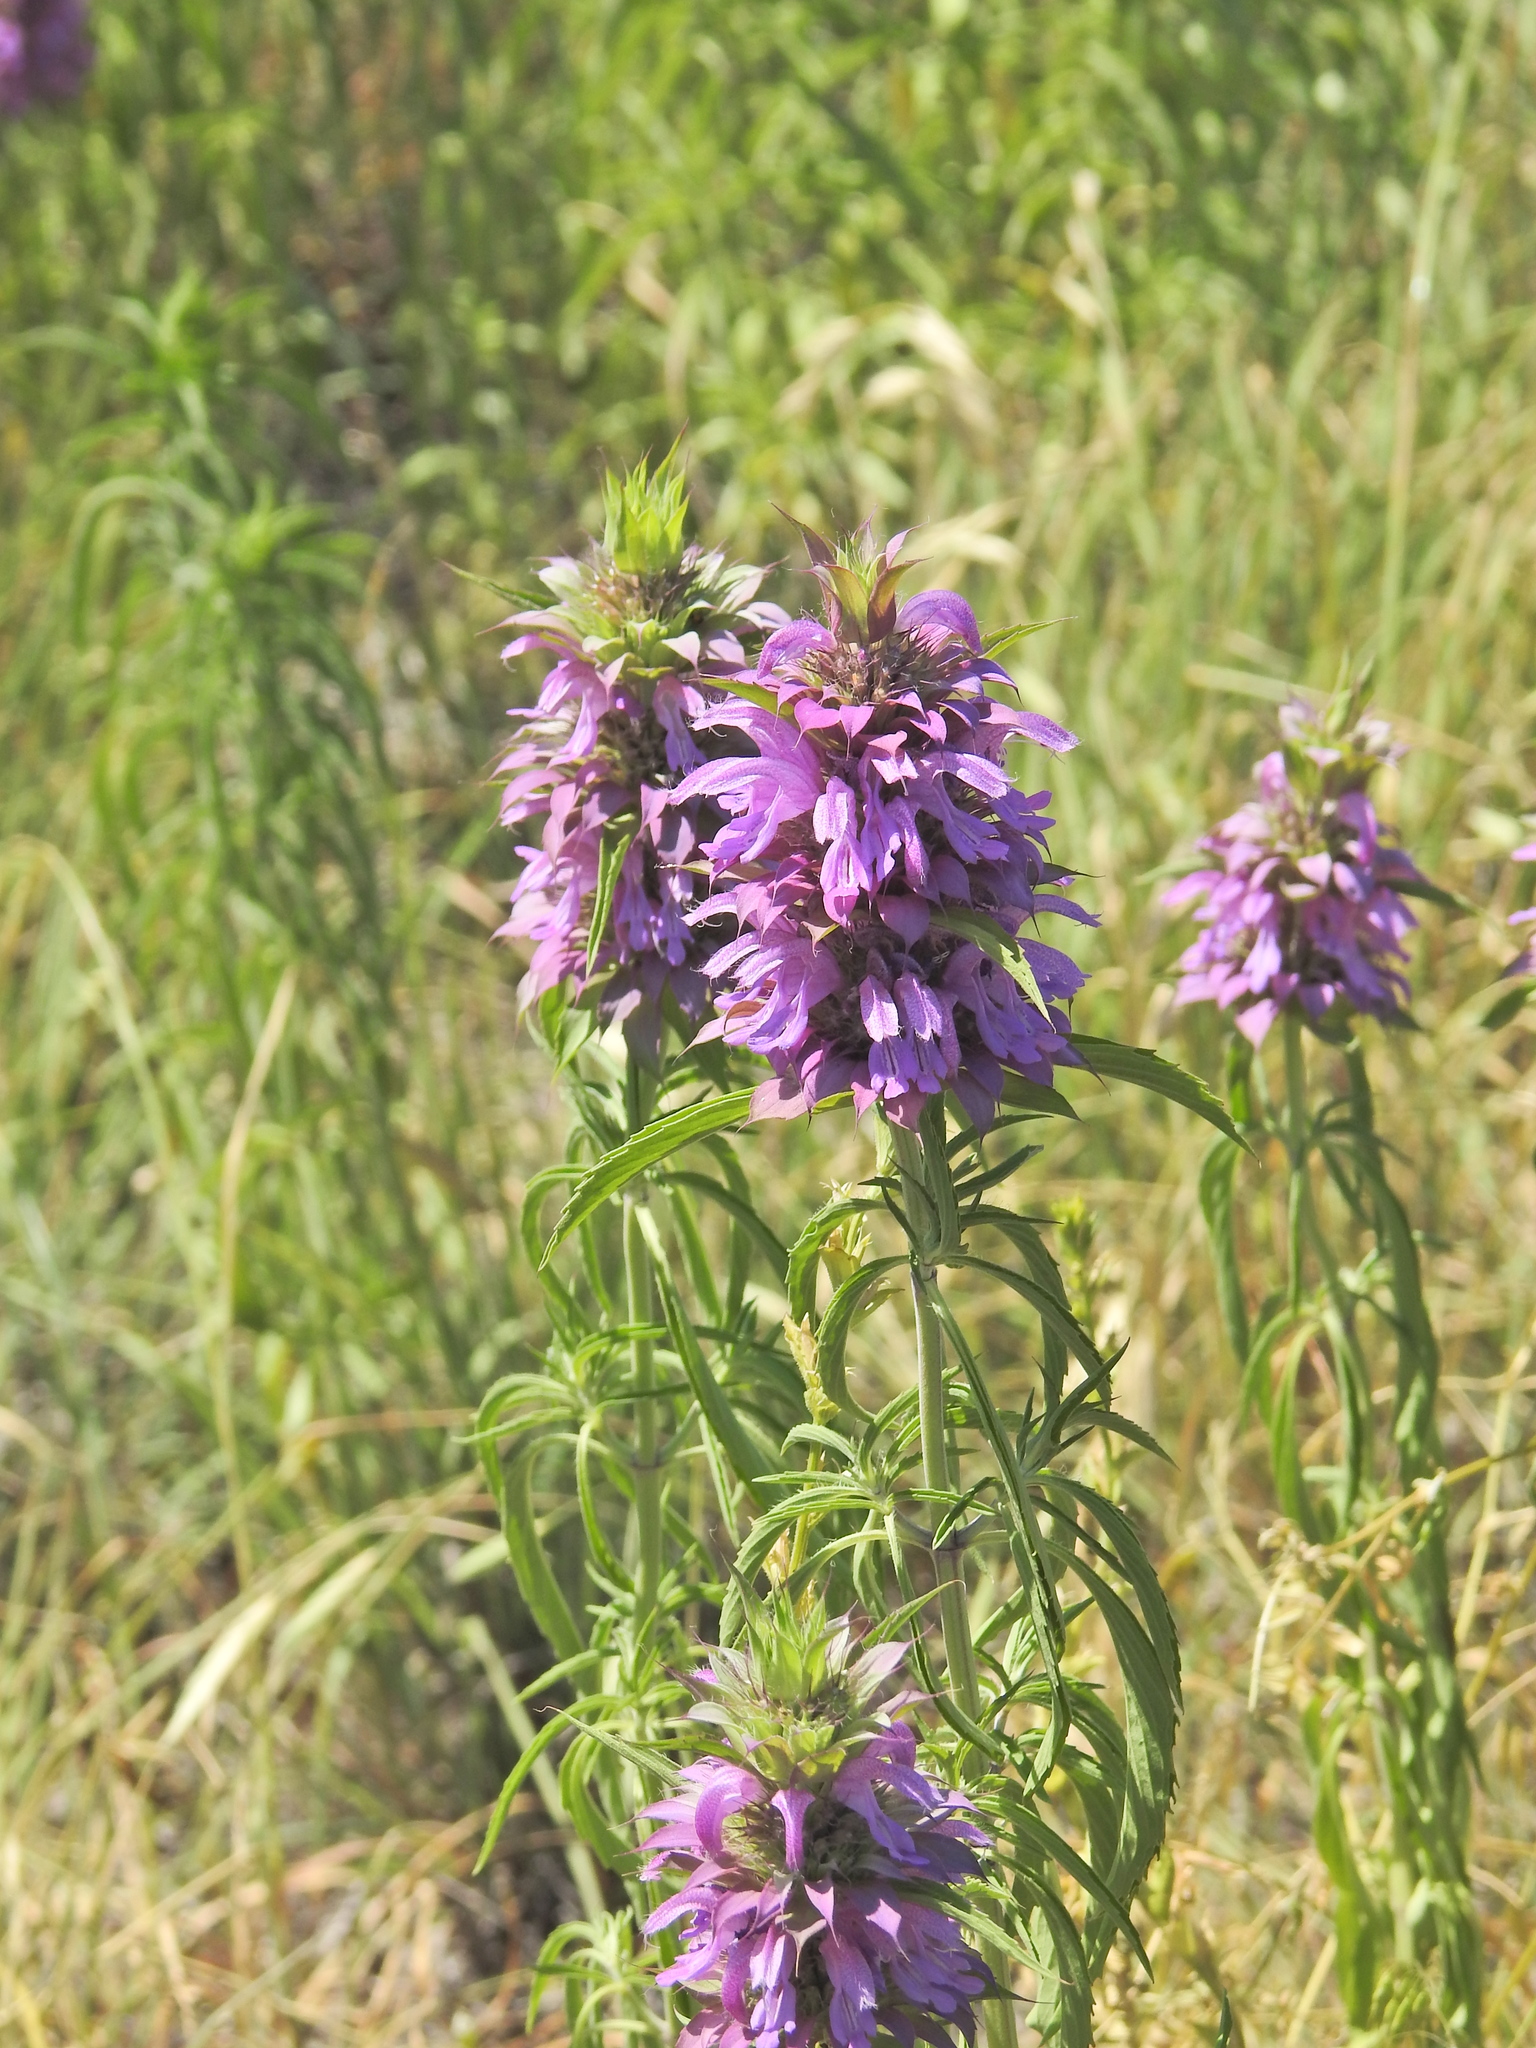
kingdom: Plantae
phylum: Tracheophyta
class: Magnoliopsida
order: Lamiales
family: Lamiaceae
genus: Monarda
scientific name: Monarda citriodora
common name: Lemon beebalm
